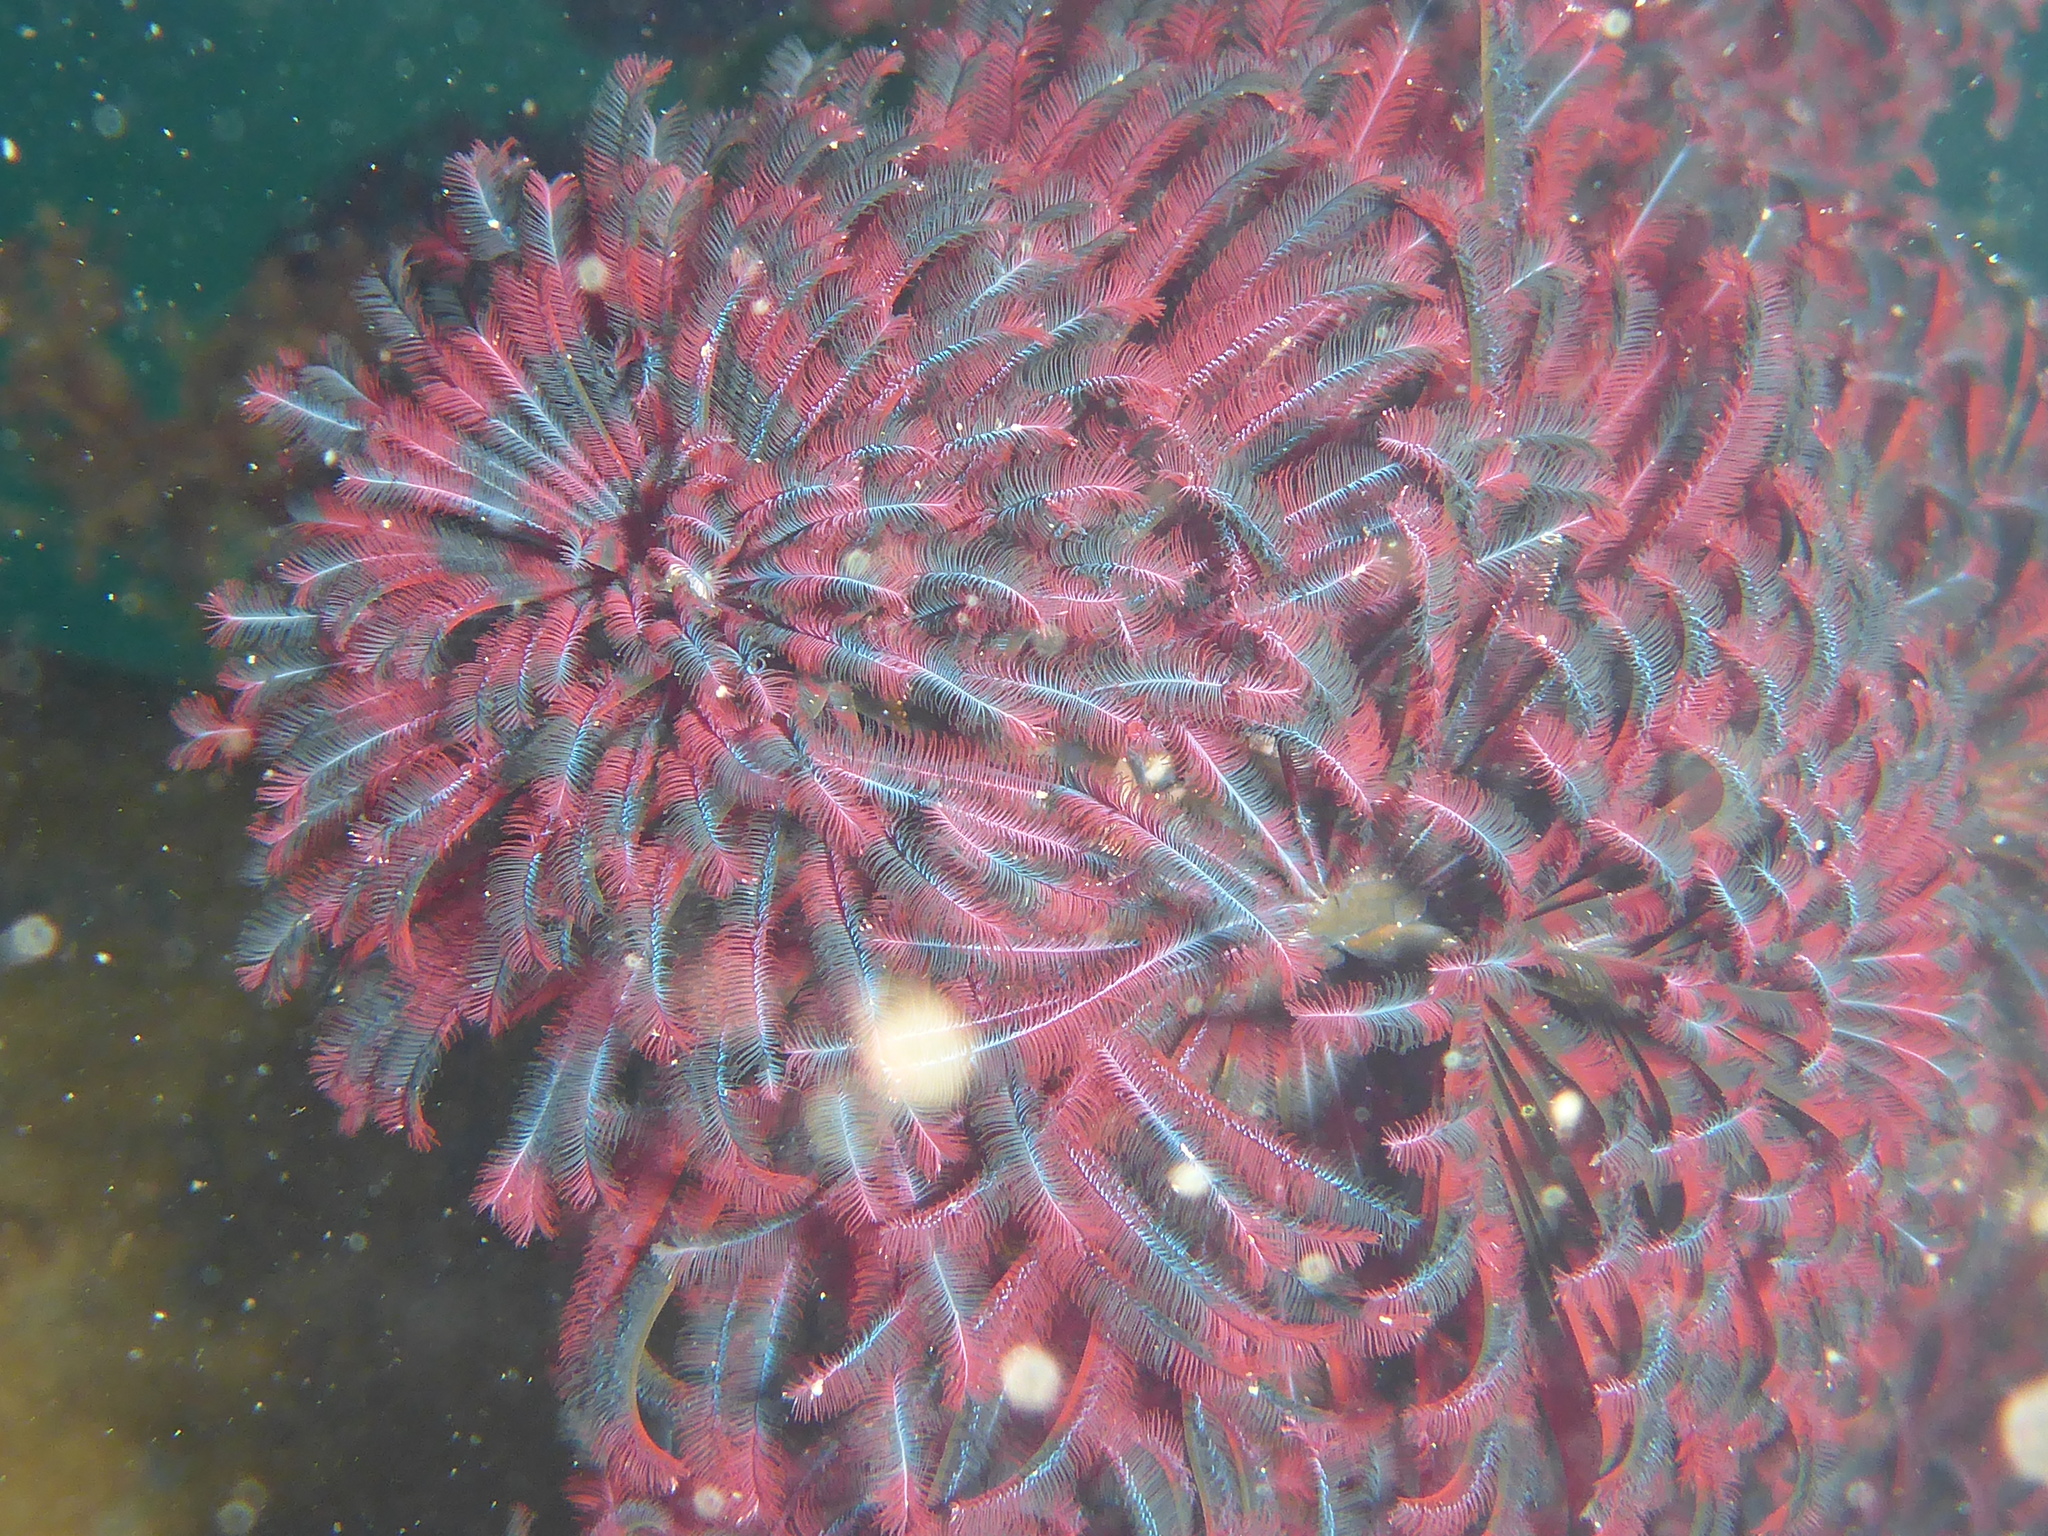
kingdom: Animalia
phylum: Annelida
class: Polychaeta
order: Sabellida
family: Sabellidae
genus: Eudistylia
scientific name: Eudistylia vancouveri
